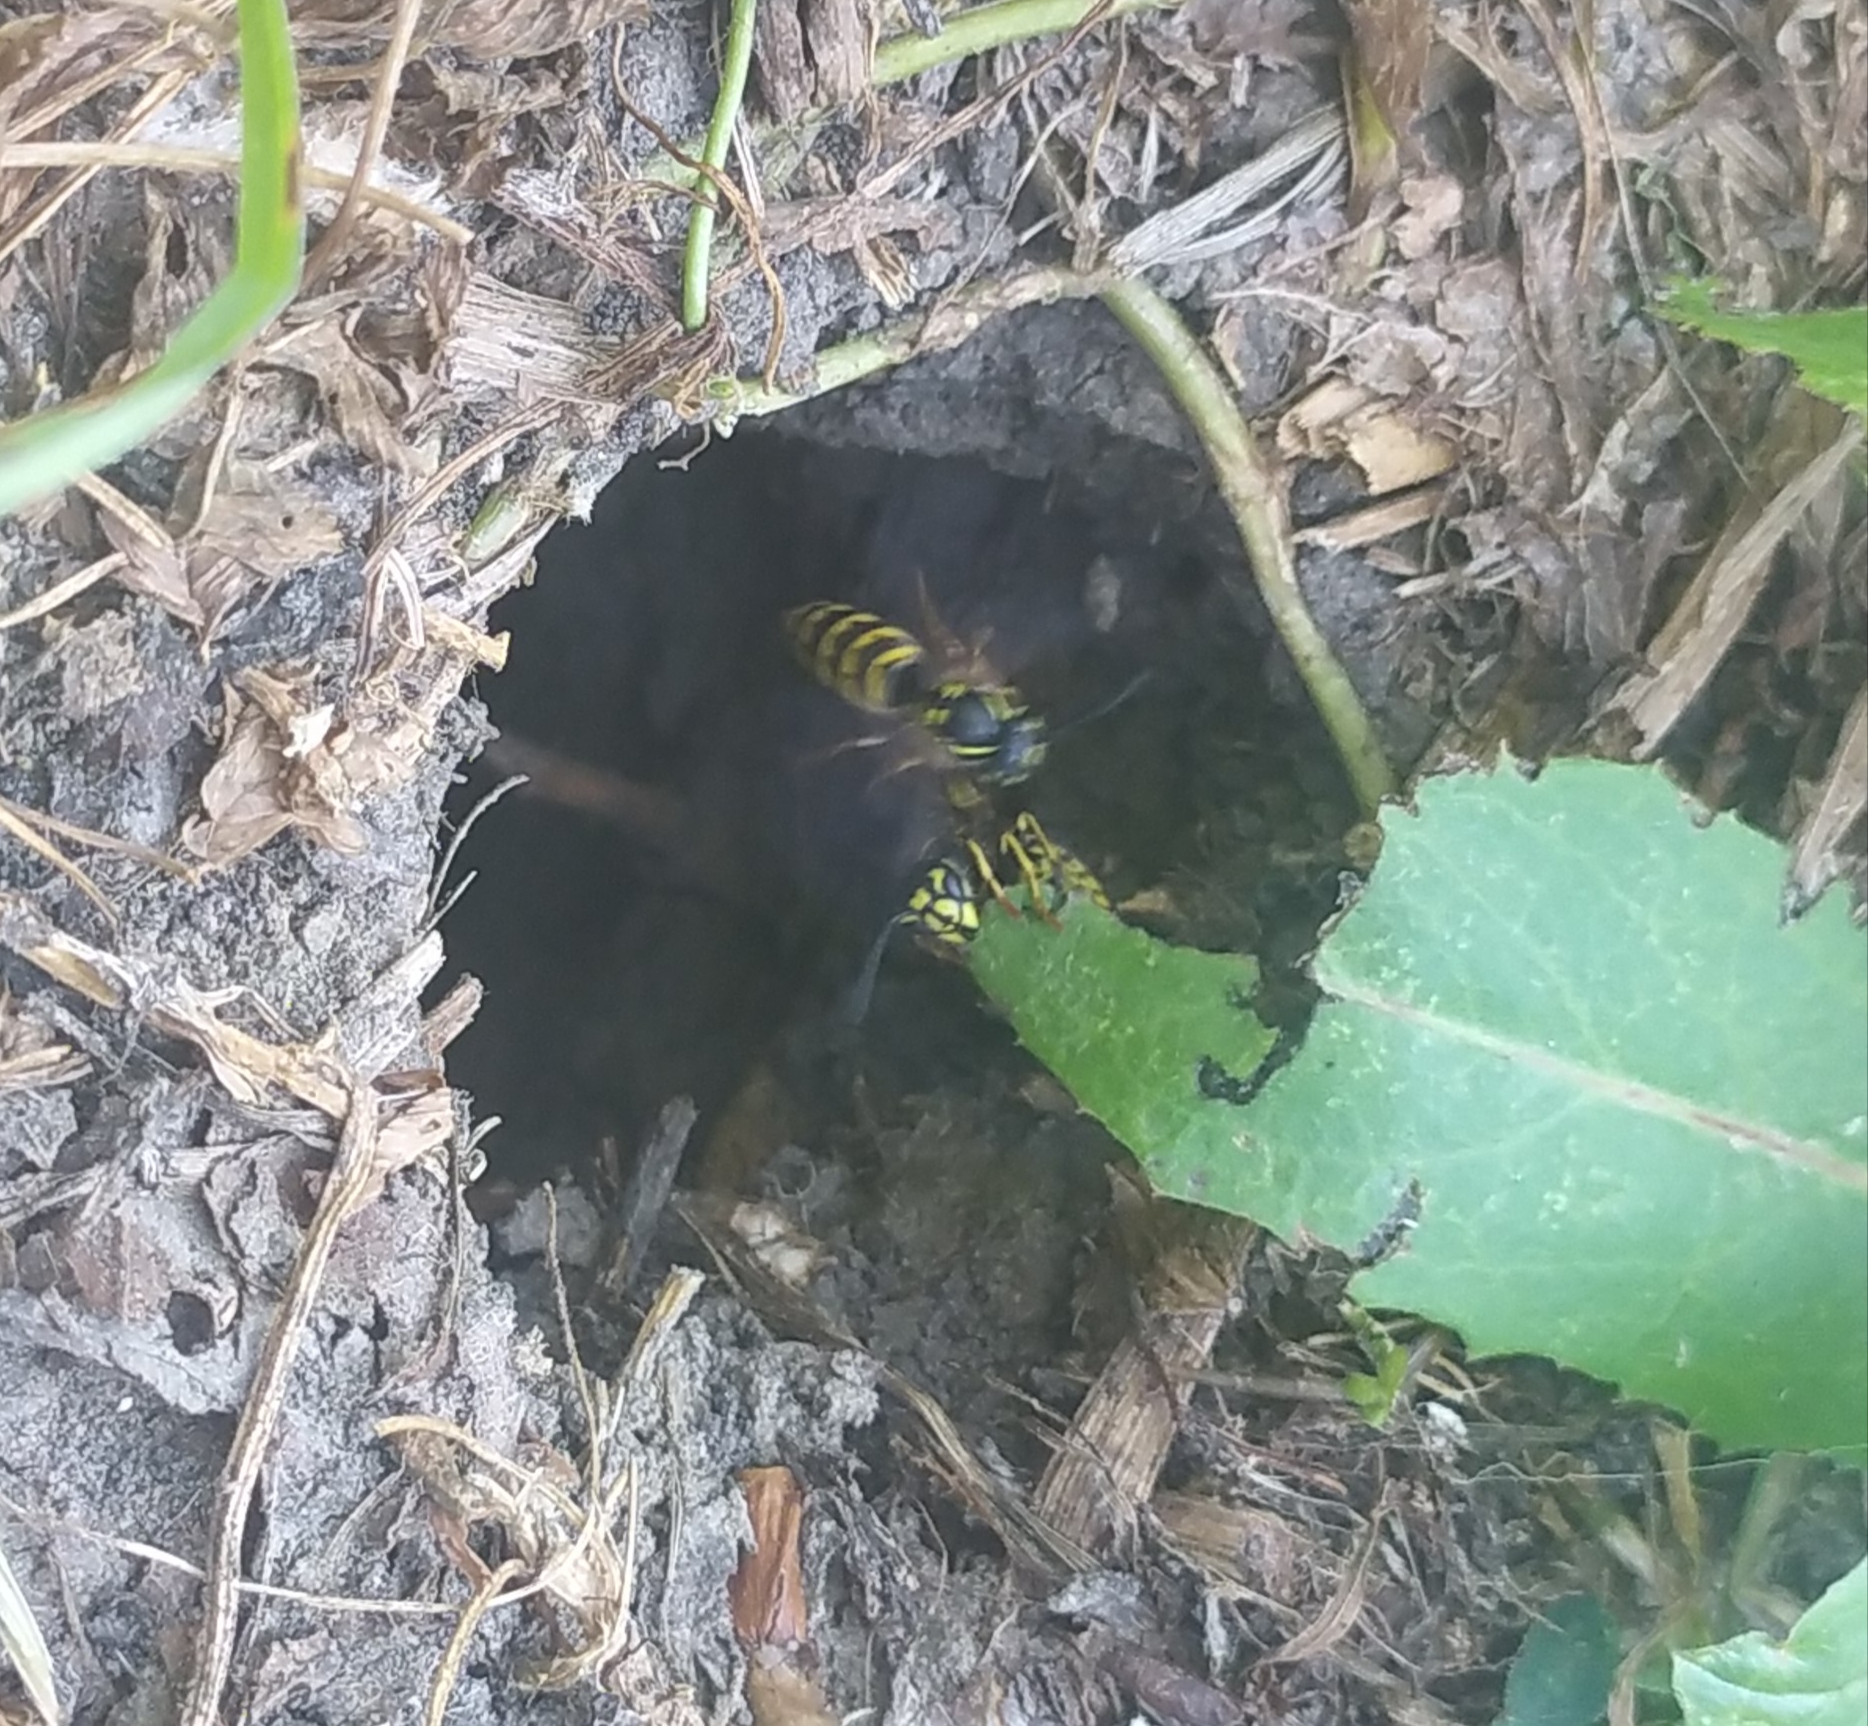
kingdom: Animalia
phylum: Arthropoda
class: Insecta
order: Hymenoptera
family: Vespidae
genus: Vespula
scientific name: Vespula vulgaris
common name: Common wasp
